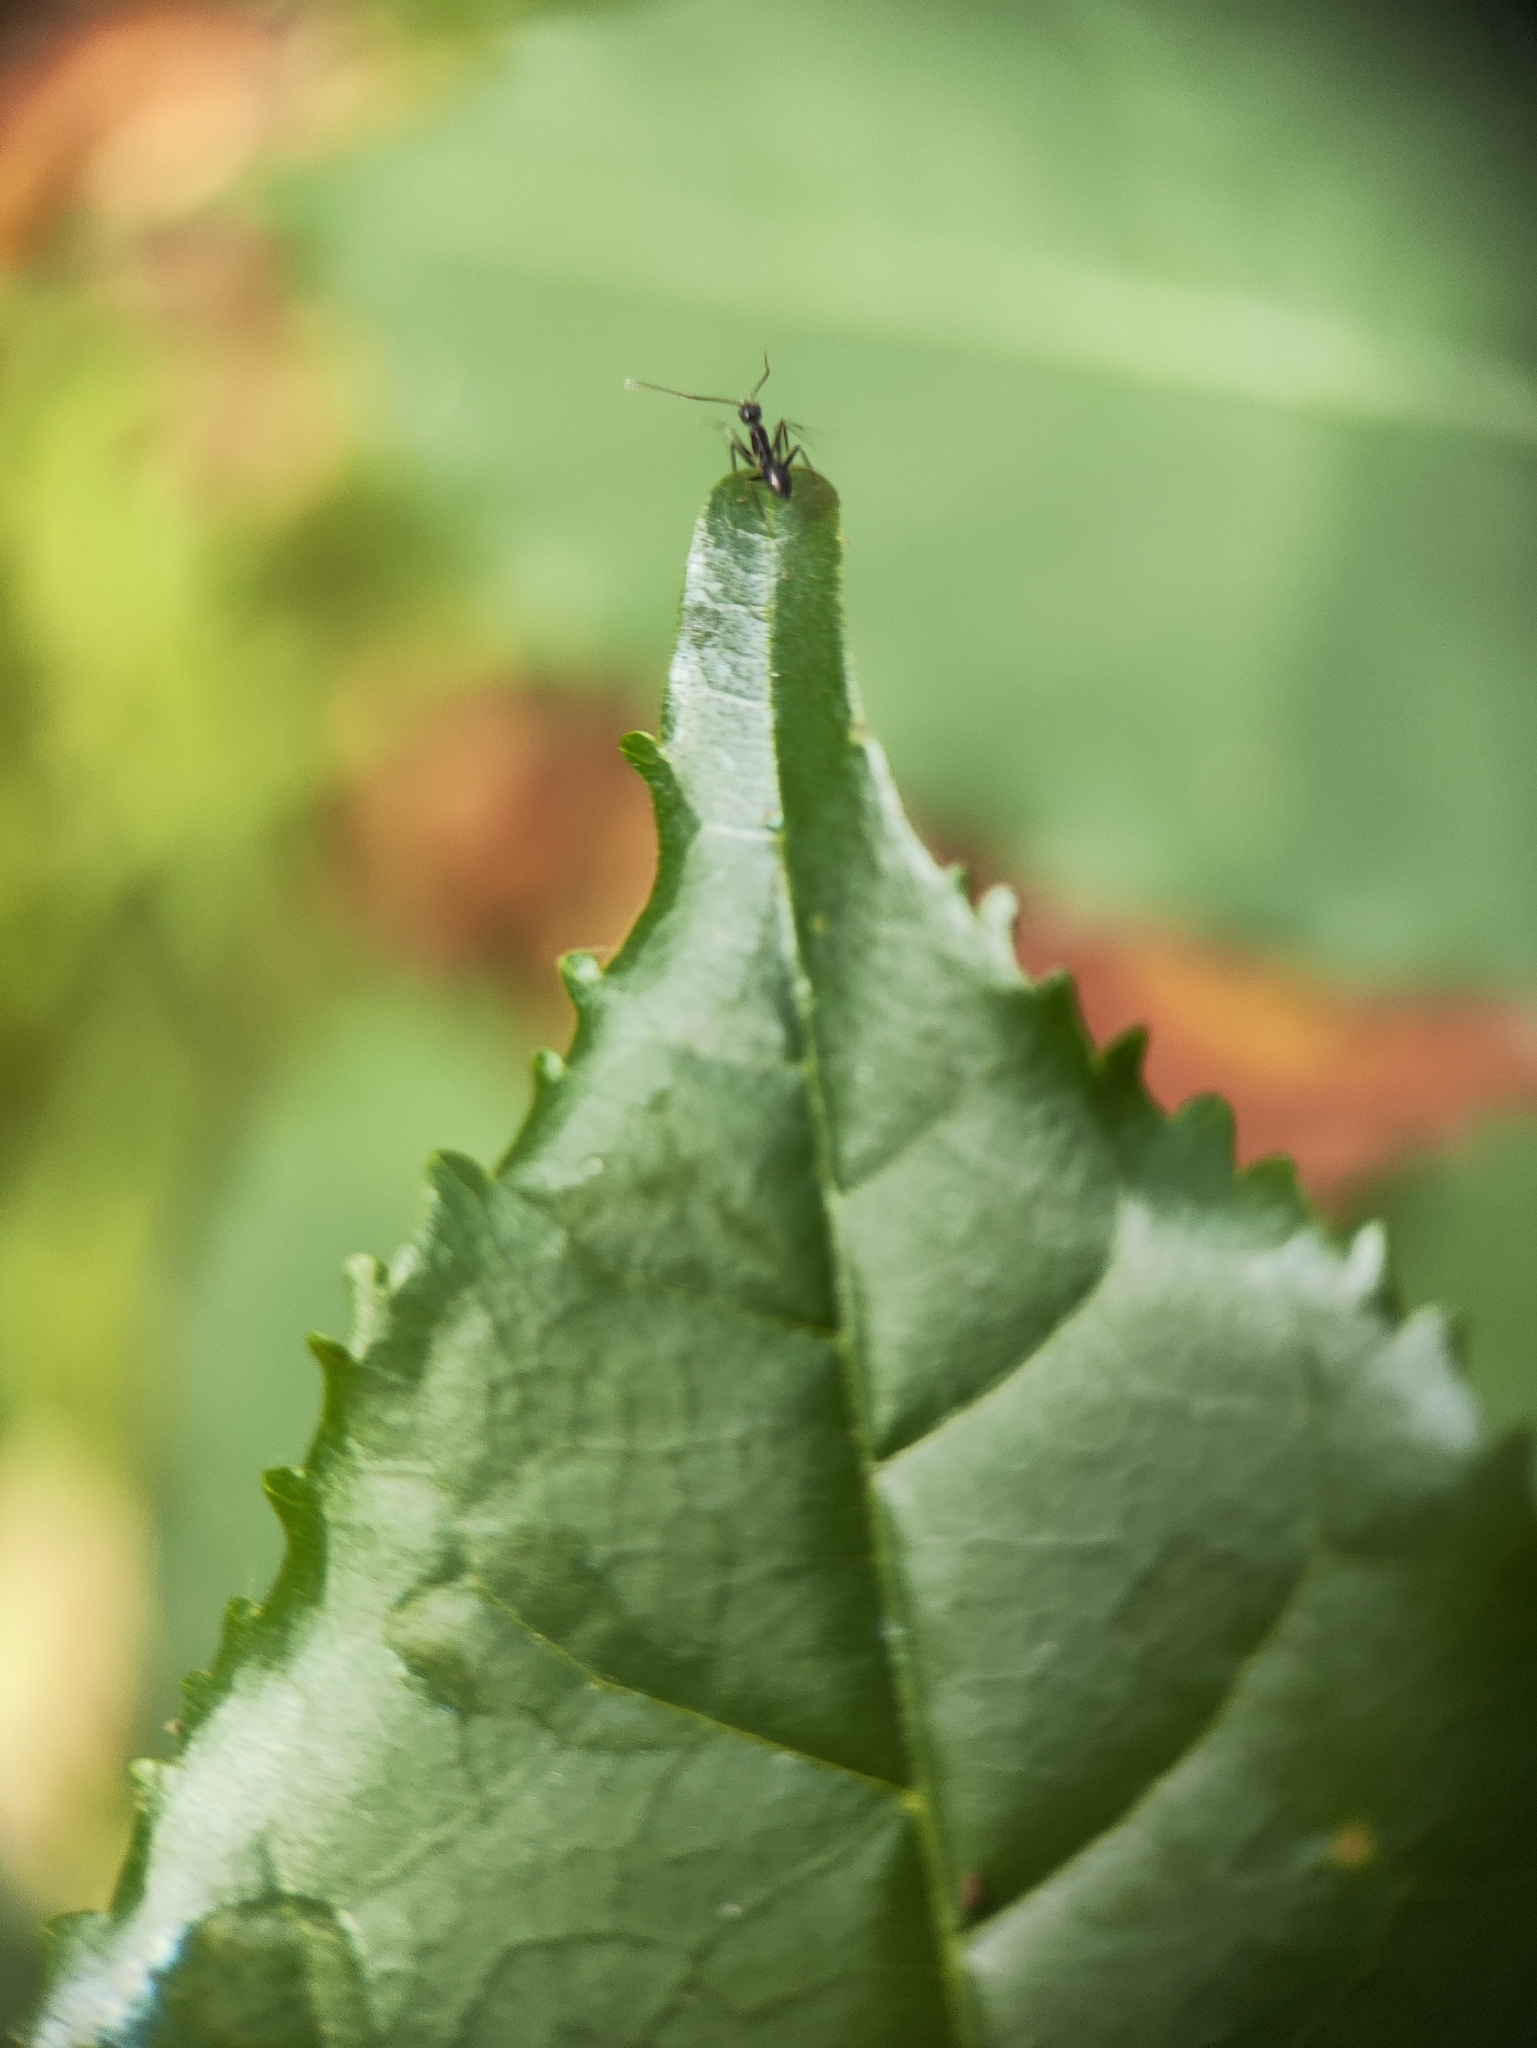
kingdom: Animalia
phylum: Arthropoda
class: Insecta
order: Hymenoptera
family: Formicidae
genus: Paratrechina
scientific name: Paratrechina longicornis
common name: Longhorned crazy ant
